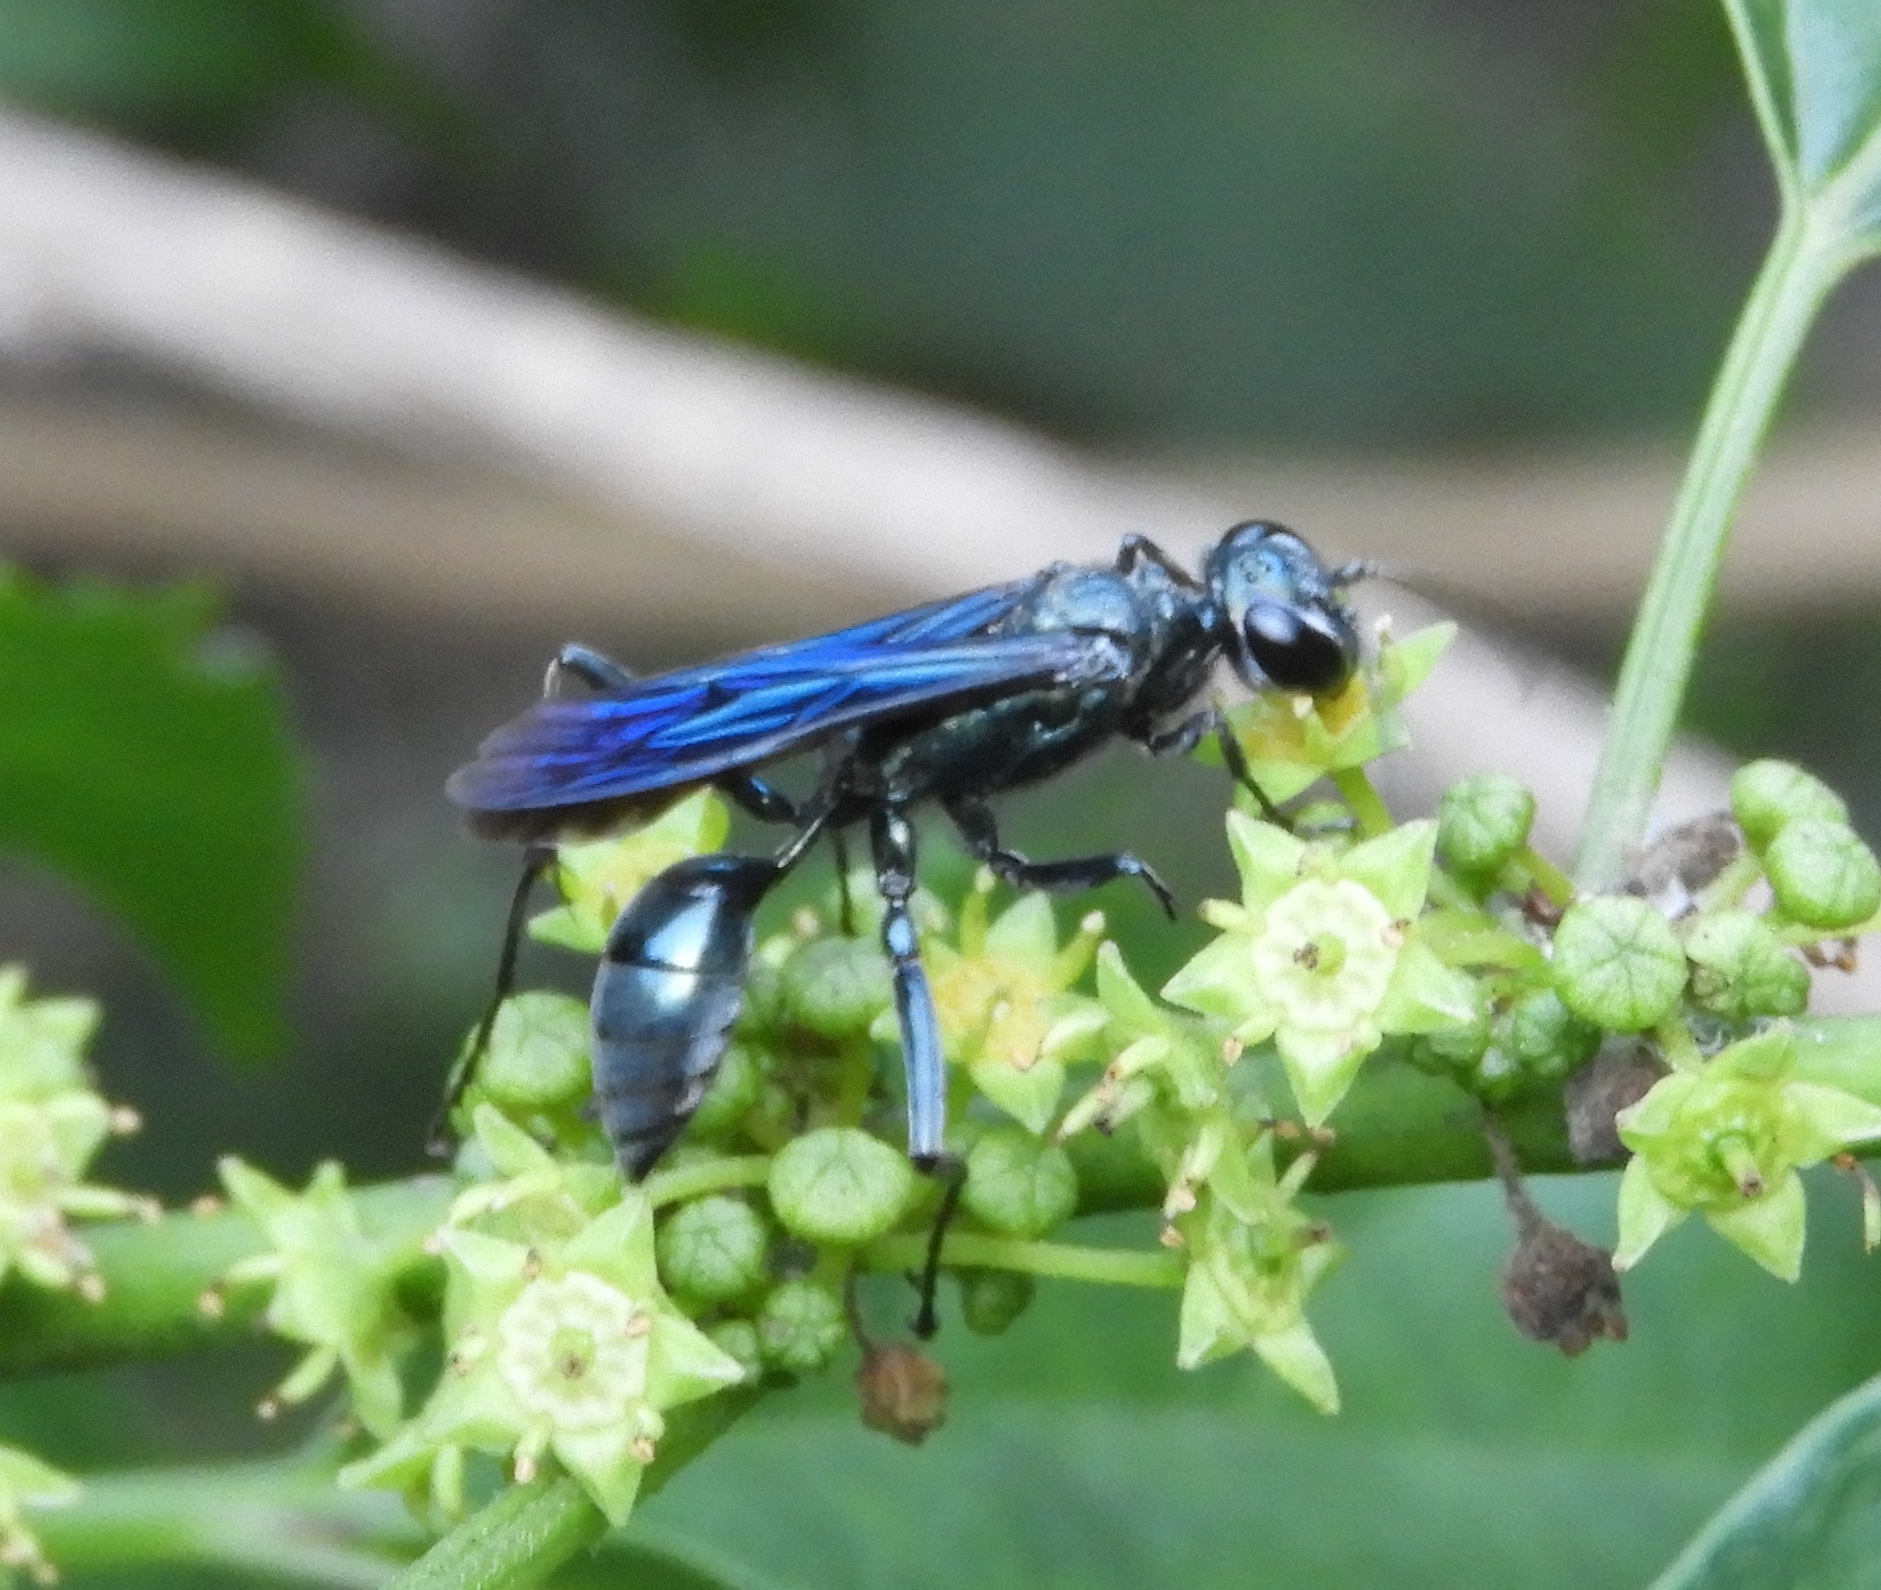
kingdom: Animalia
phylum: Arthropoda
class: Insecta
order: Hymenoptera
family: Sphecidae
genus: Chalybion
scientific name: Chalybion
